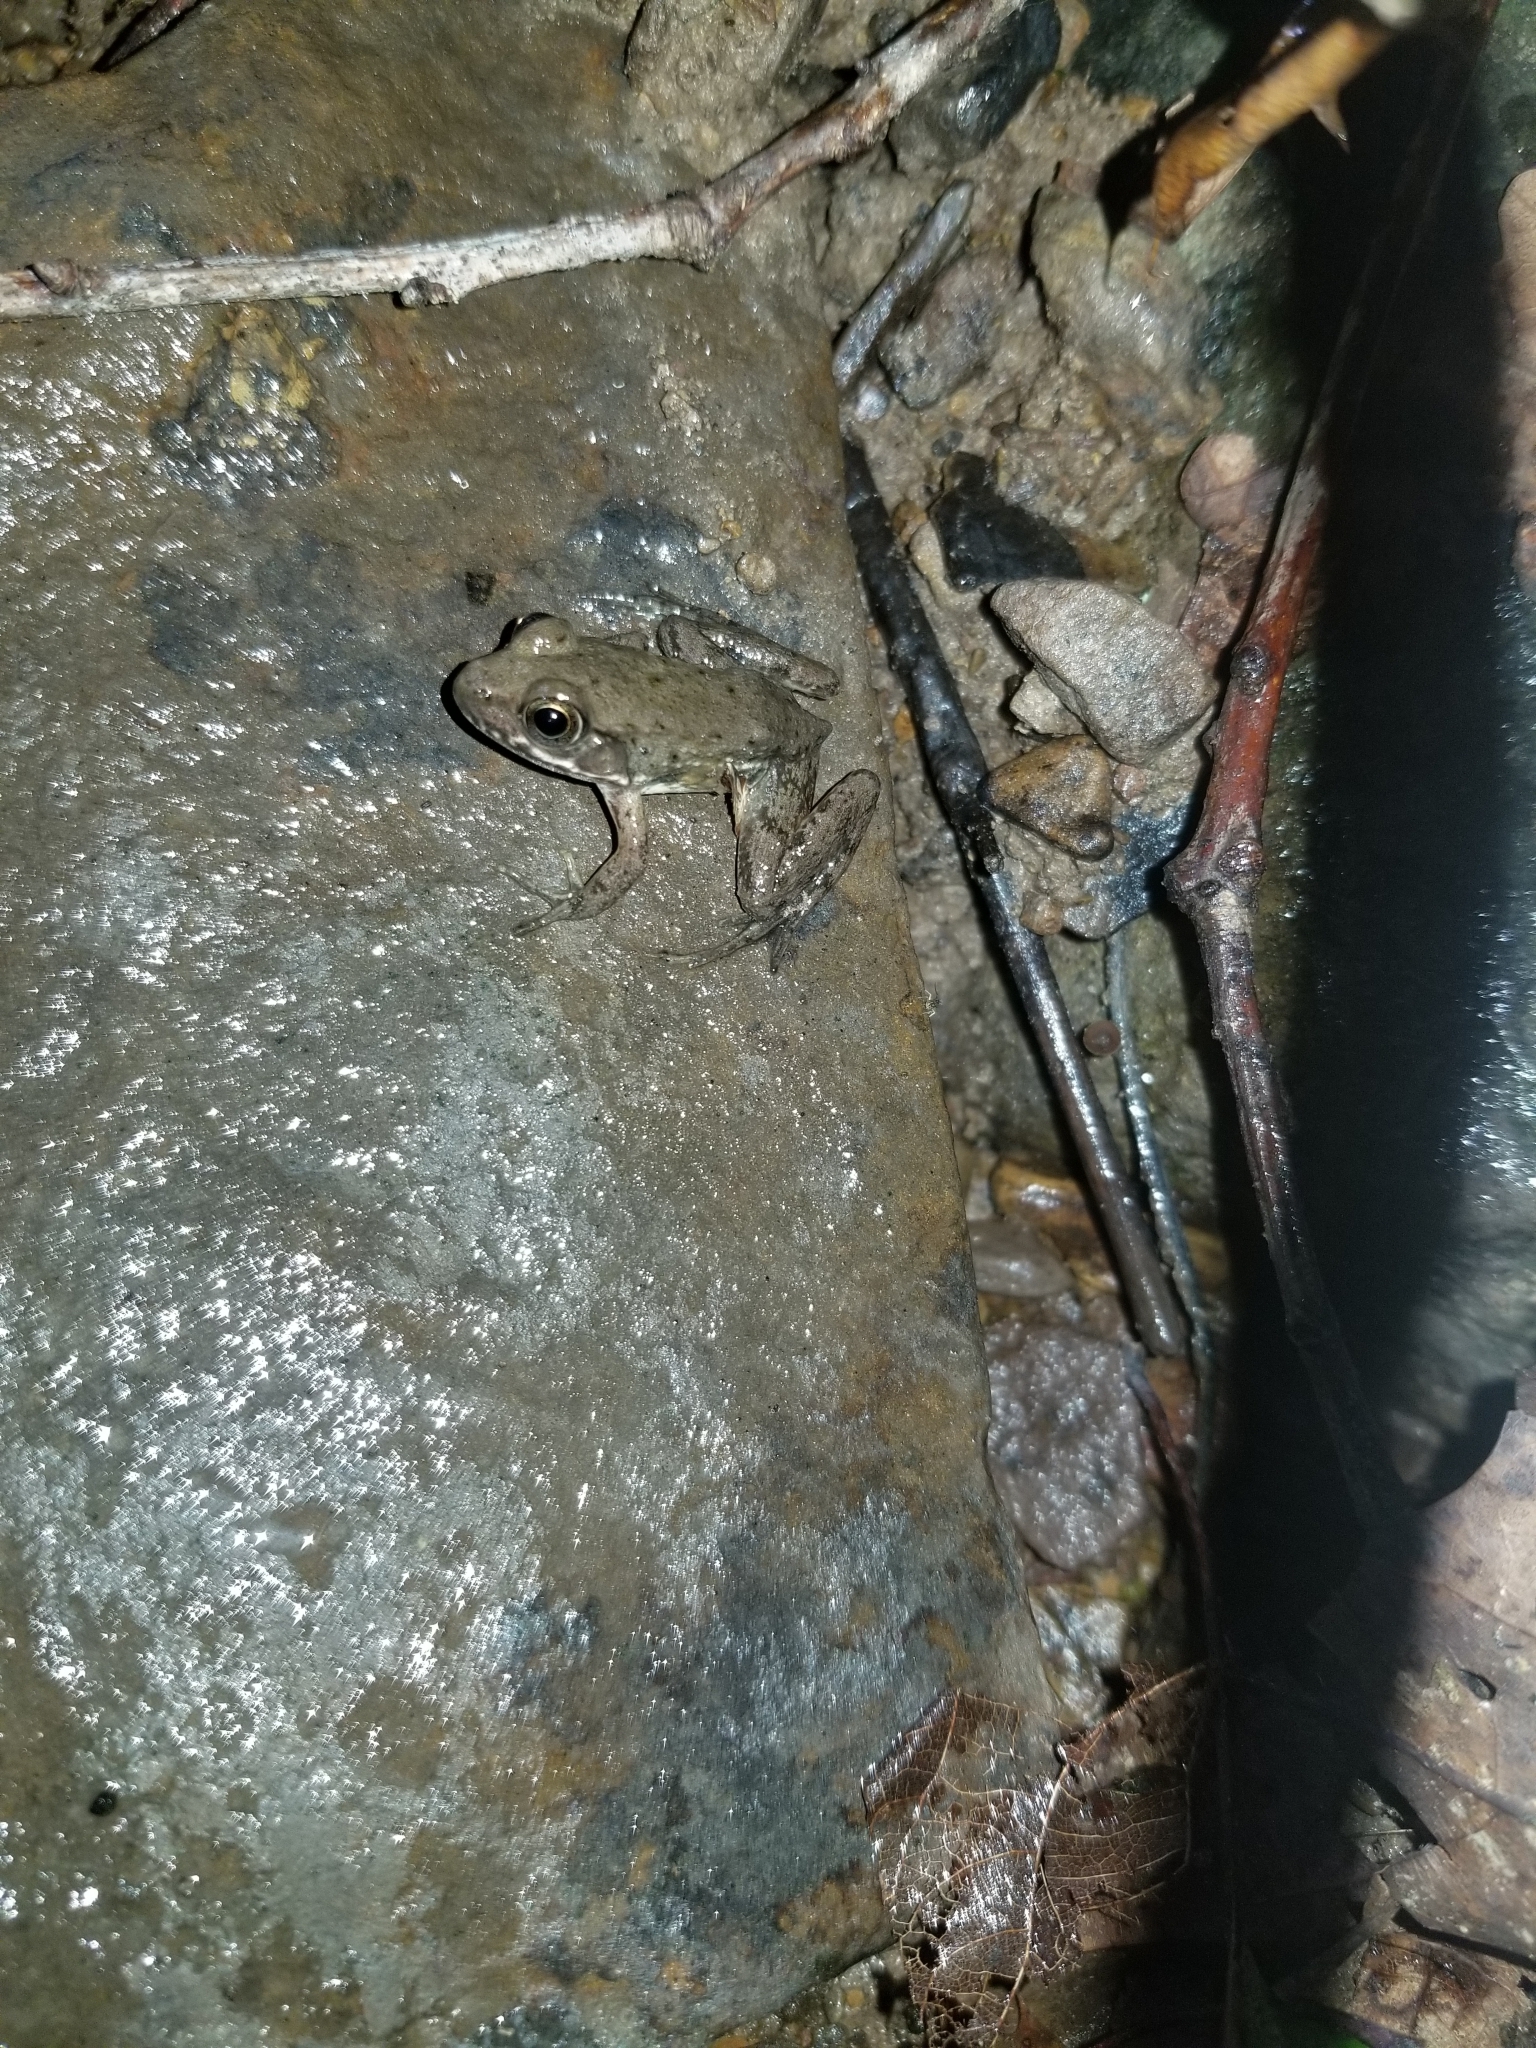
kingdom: Animalia
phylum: Chordata
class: Amphibia
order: Anura
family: Ranidae
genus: Lithobates
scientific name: Lithobates clamitans
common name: Green frog
